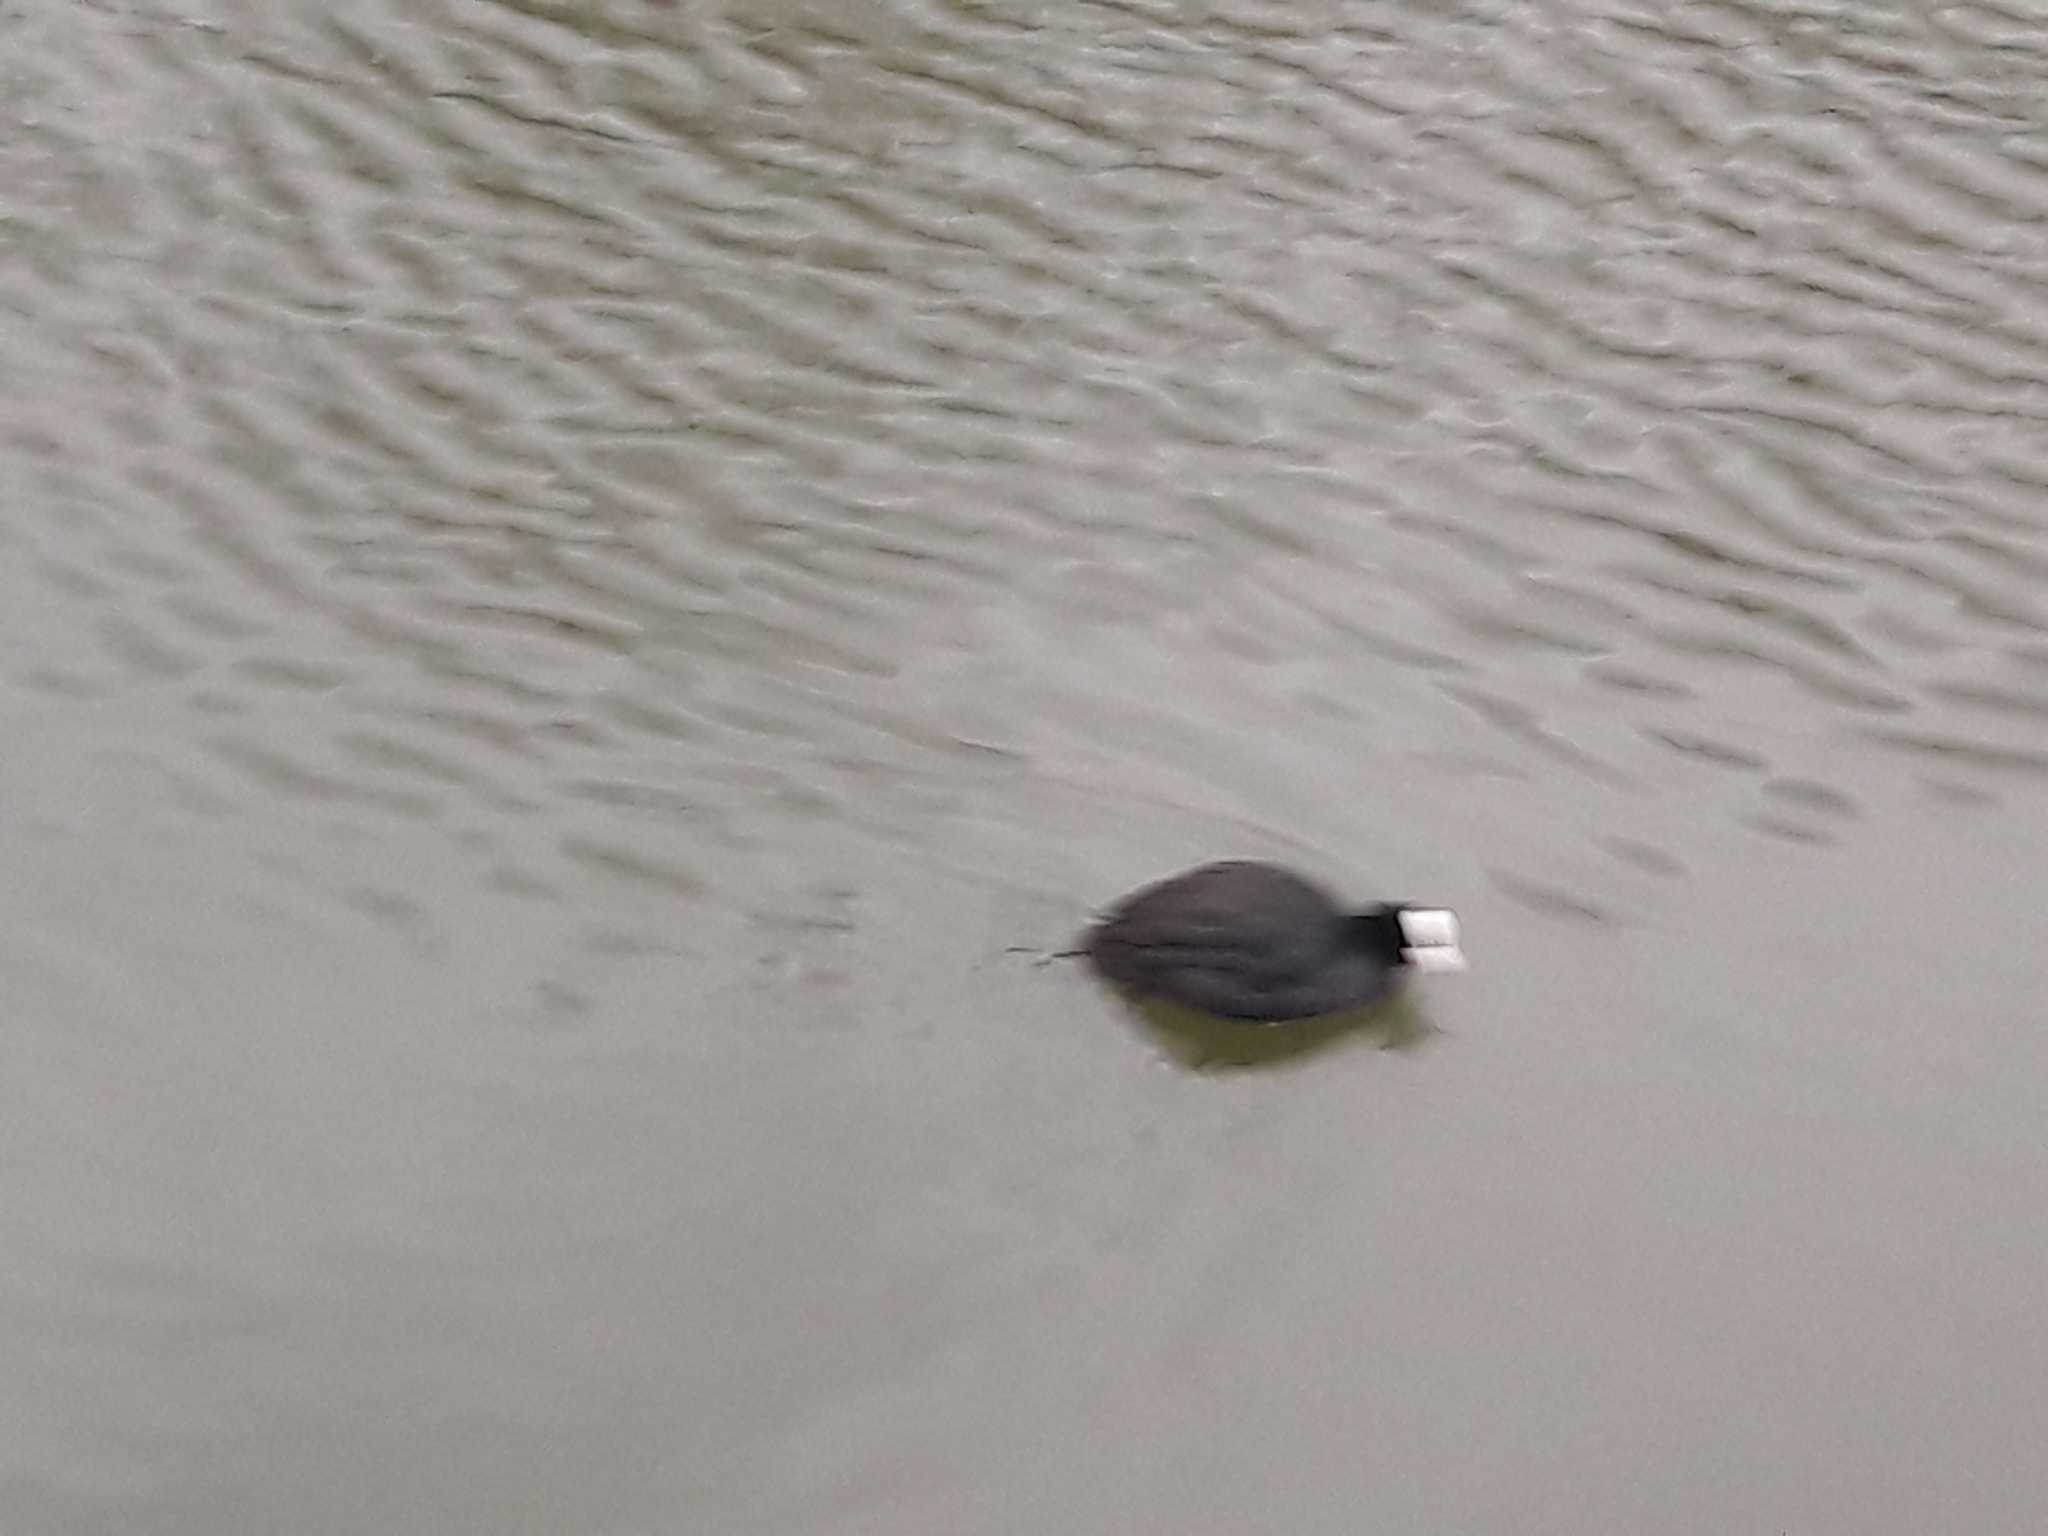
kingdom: Animalia
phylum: Chordata
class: Aves
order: Gruiformes
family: Rallidae
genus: Fulica
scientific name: Fulica atra
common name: Eurasian coot
